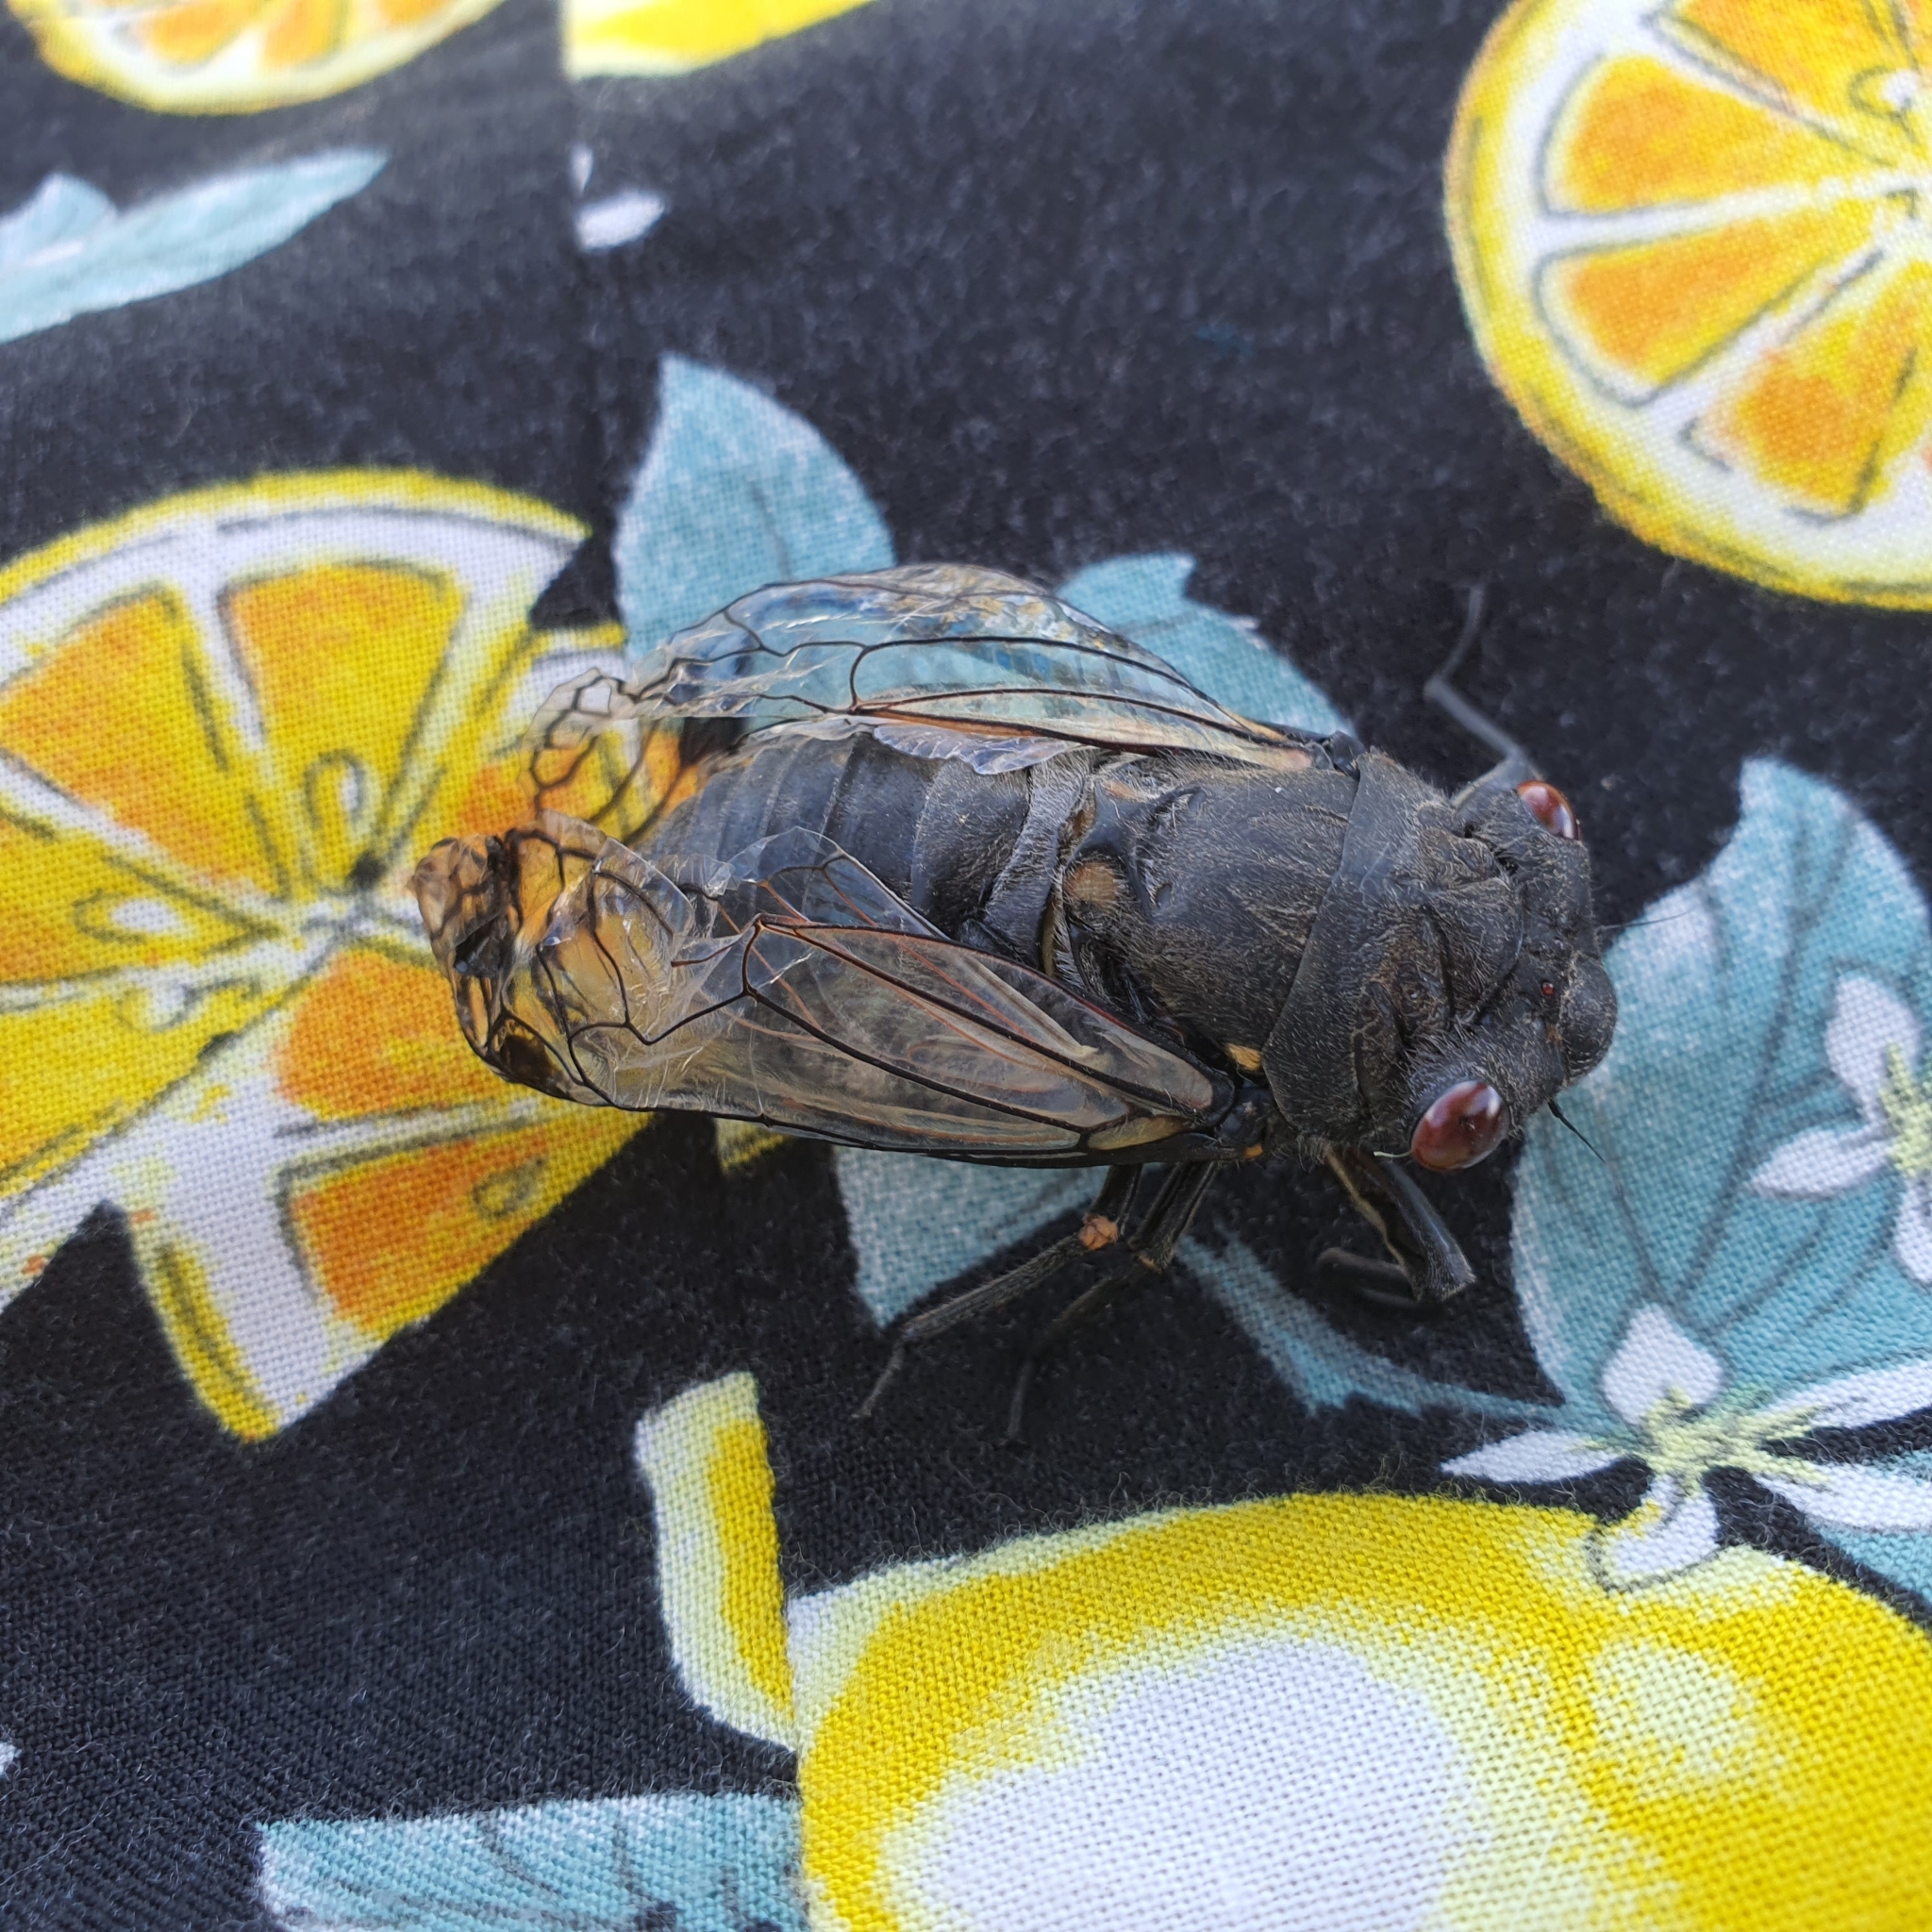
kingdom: Animalia
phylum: Arthropoda
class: Insecta
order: Hemiptera
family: Cicadidae
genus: Psaltoda
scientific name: Psaltoda moerens
